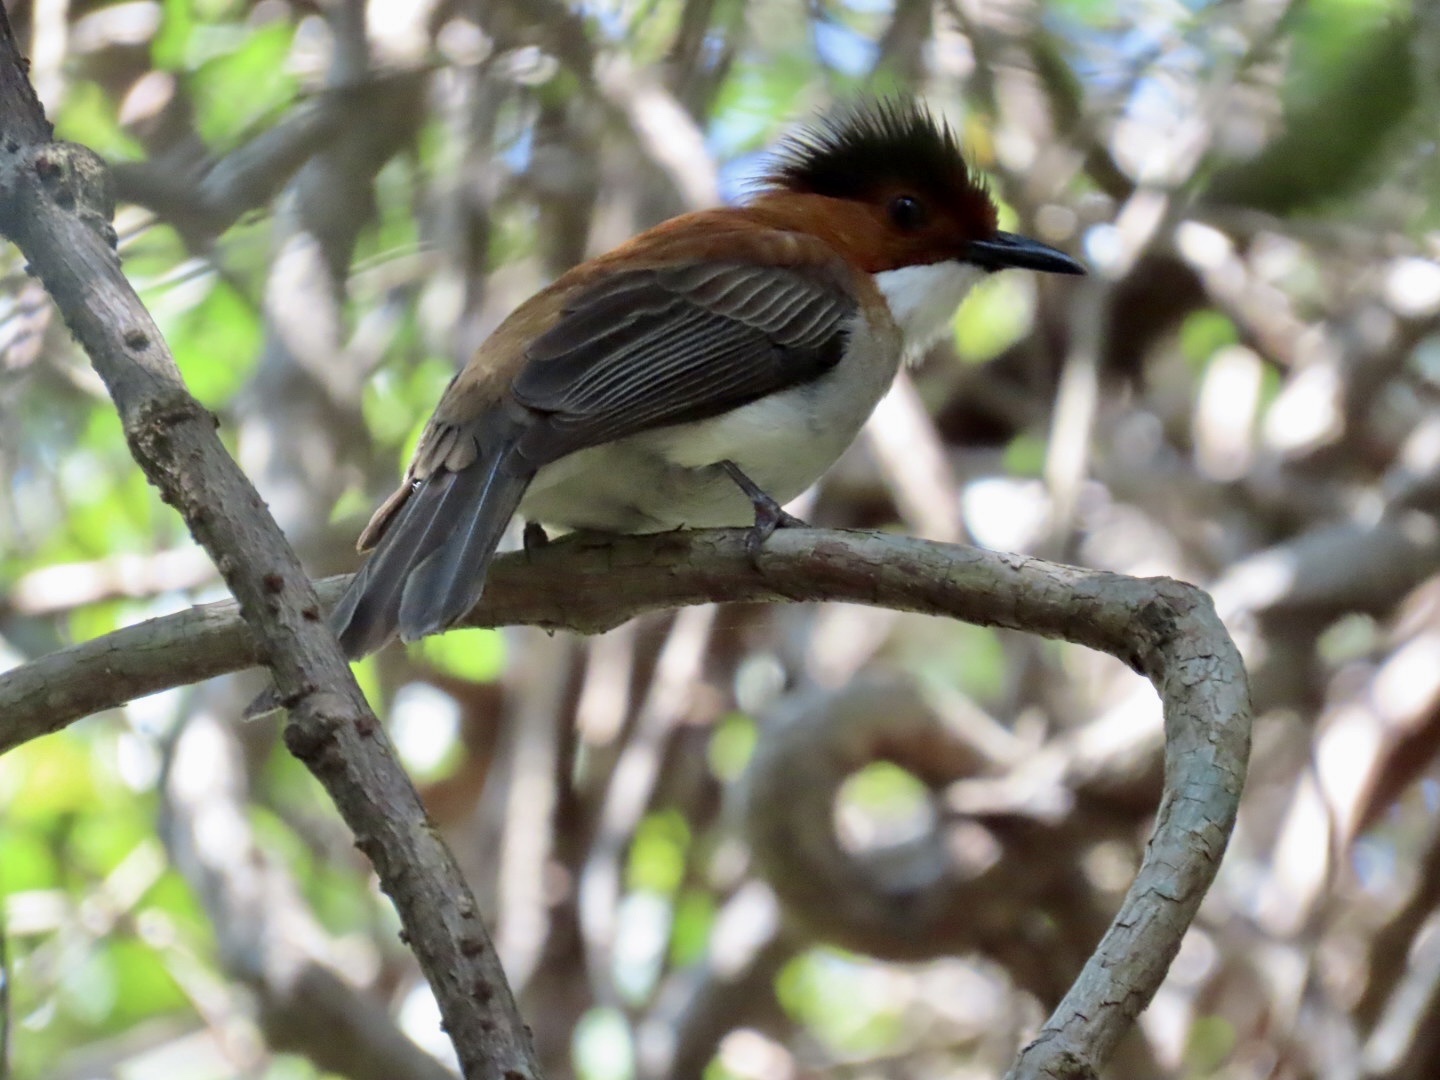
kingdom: Animalia
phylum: Chordata
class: Aves
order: Passeriformes
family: Pycnonotidae
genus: Hemixos
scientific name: Hemixos castanonotus
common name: Chestnut bulbul
